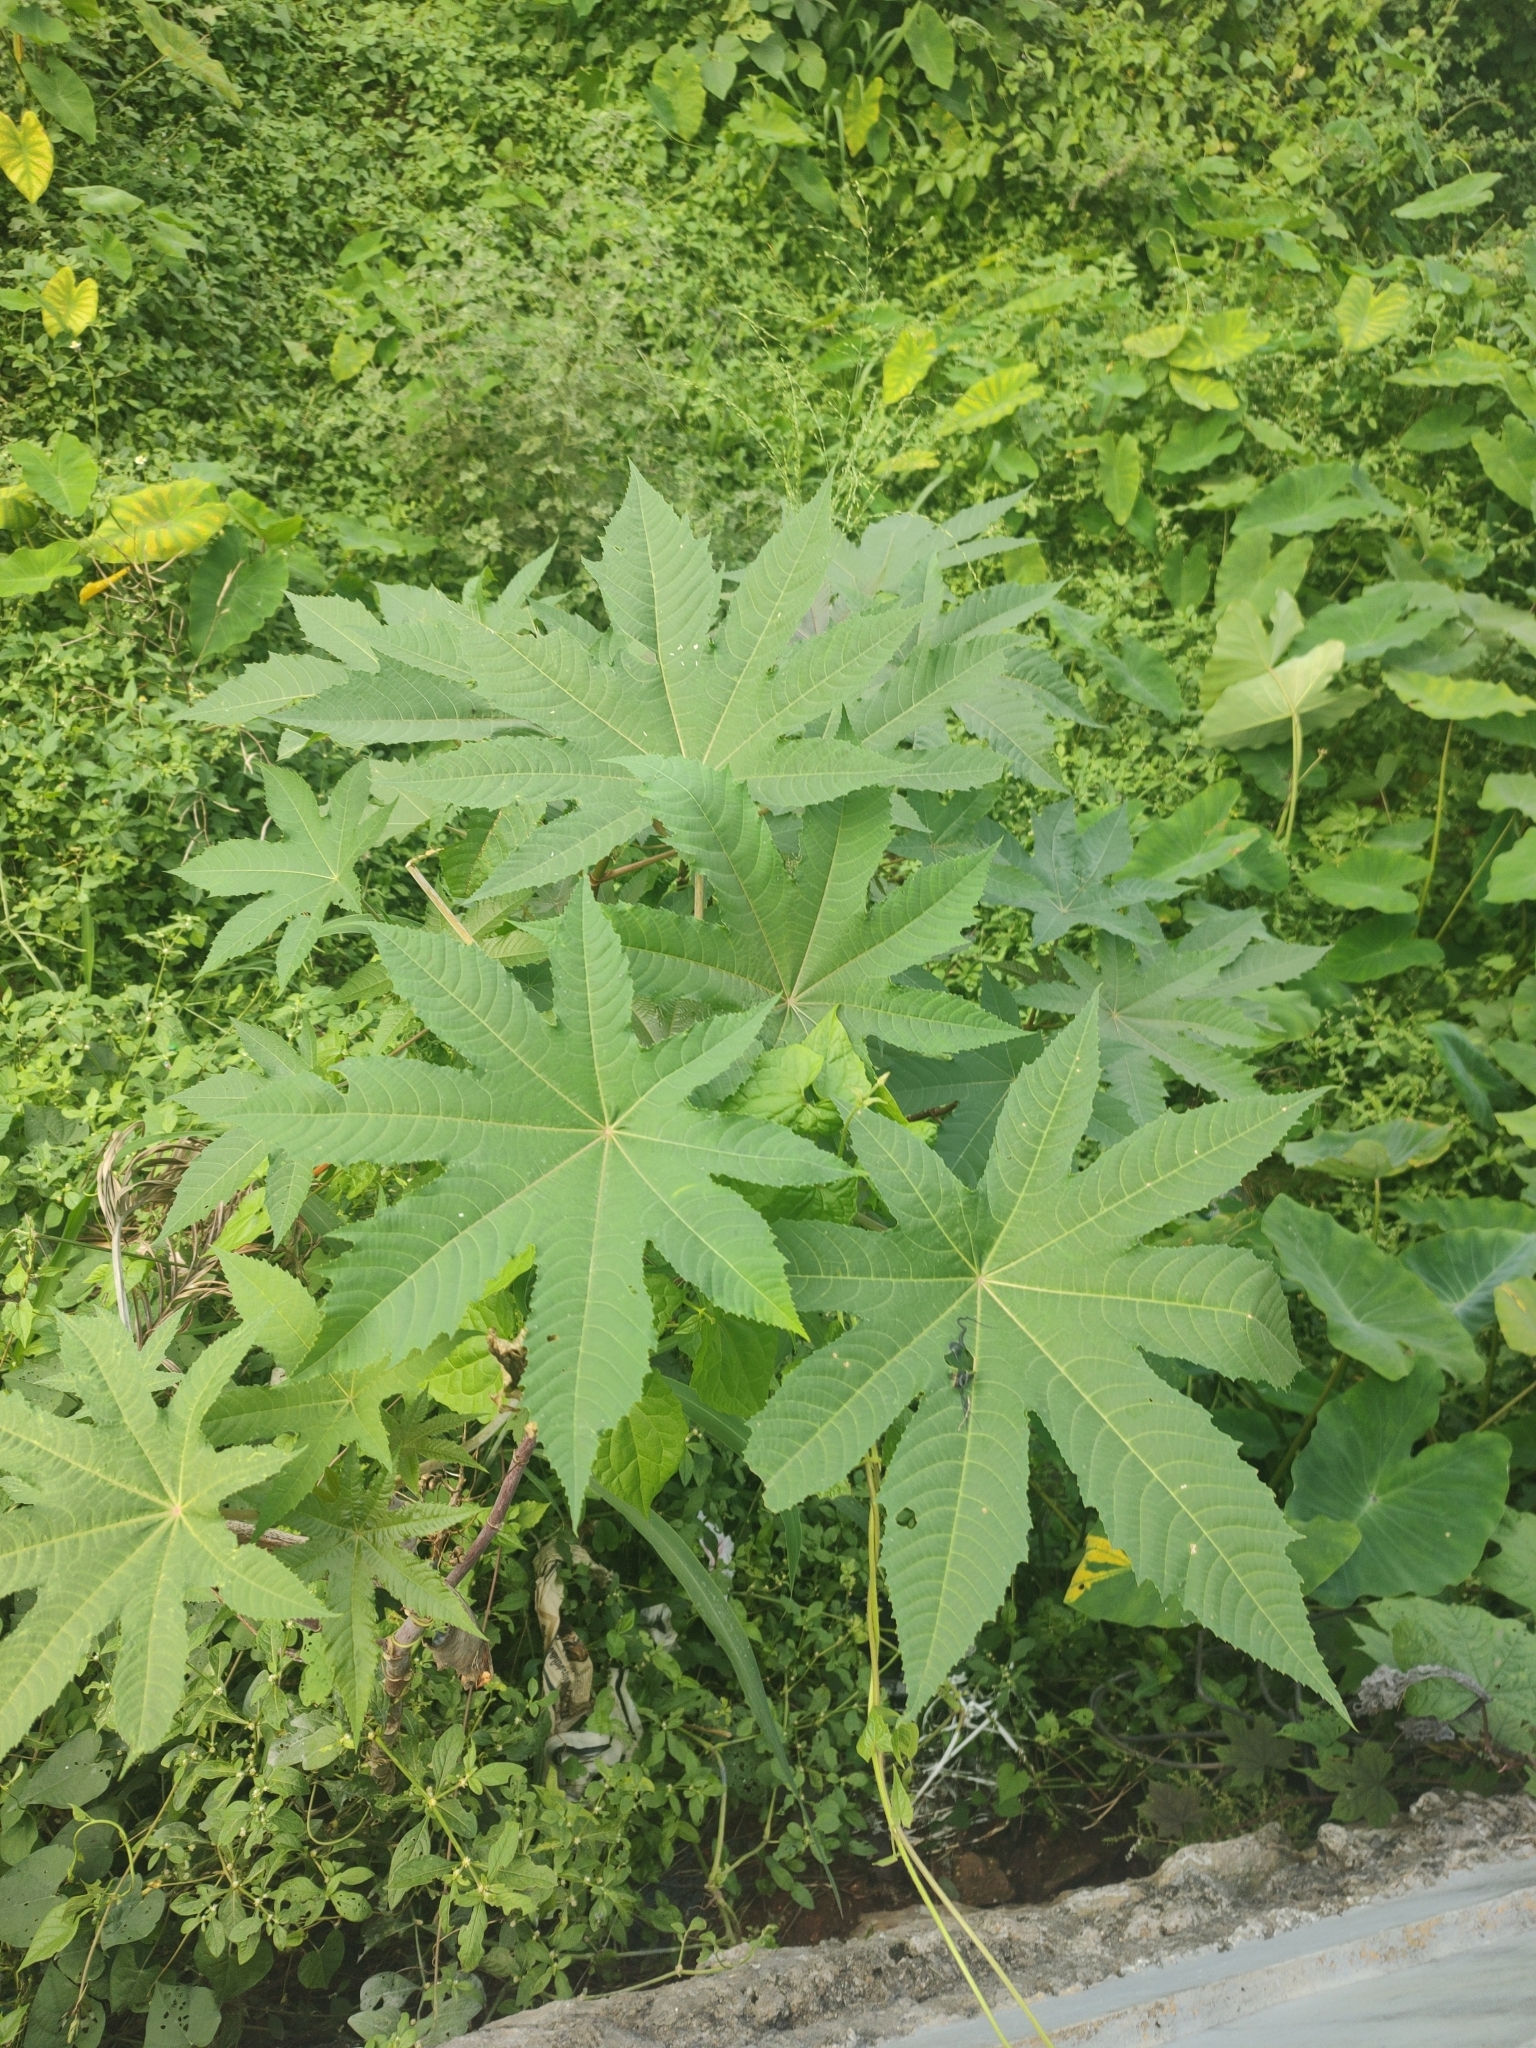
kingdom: Plantae
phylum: Tracheophyta
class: Magnoliopsida
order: Malpighiales
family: Euphorbiaceae
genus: Ricinus
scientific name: Ricinus communis
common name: Castor-oil-plant
